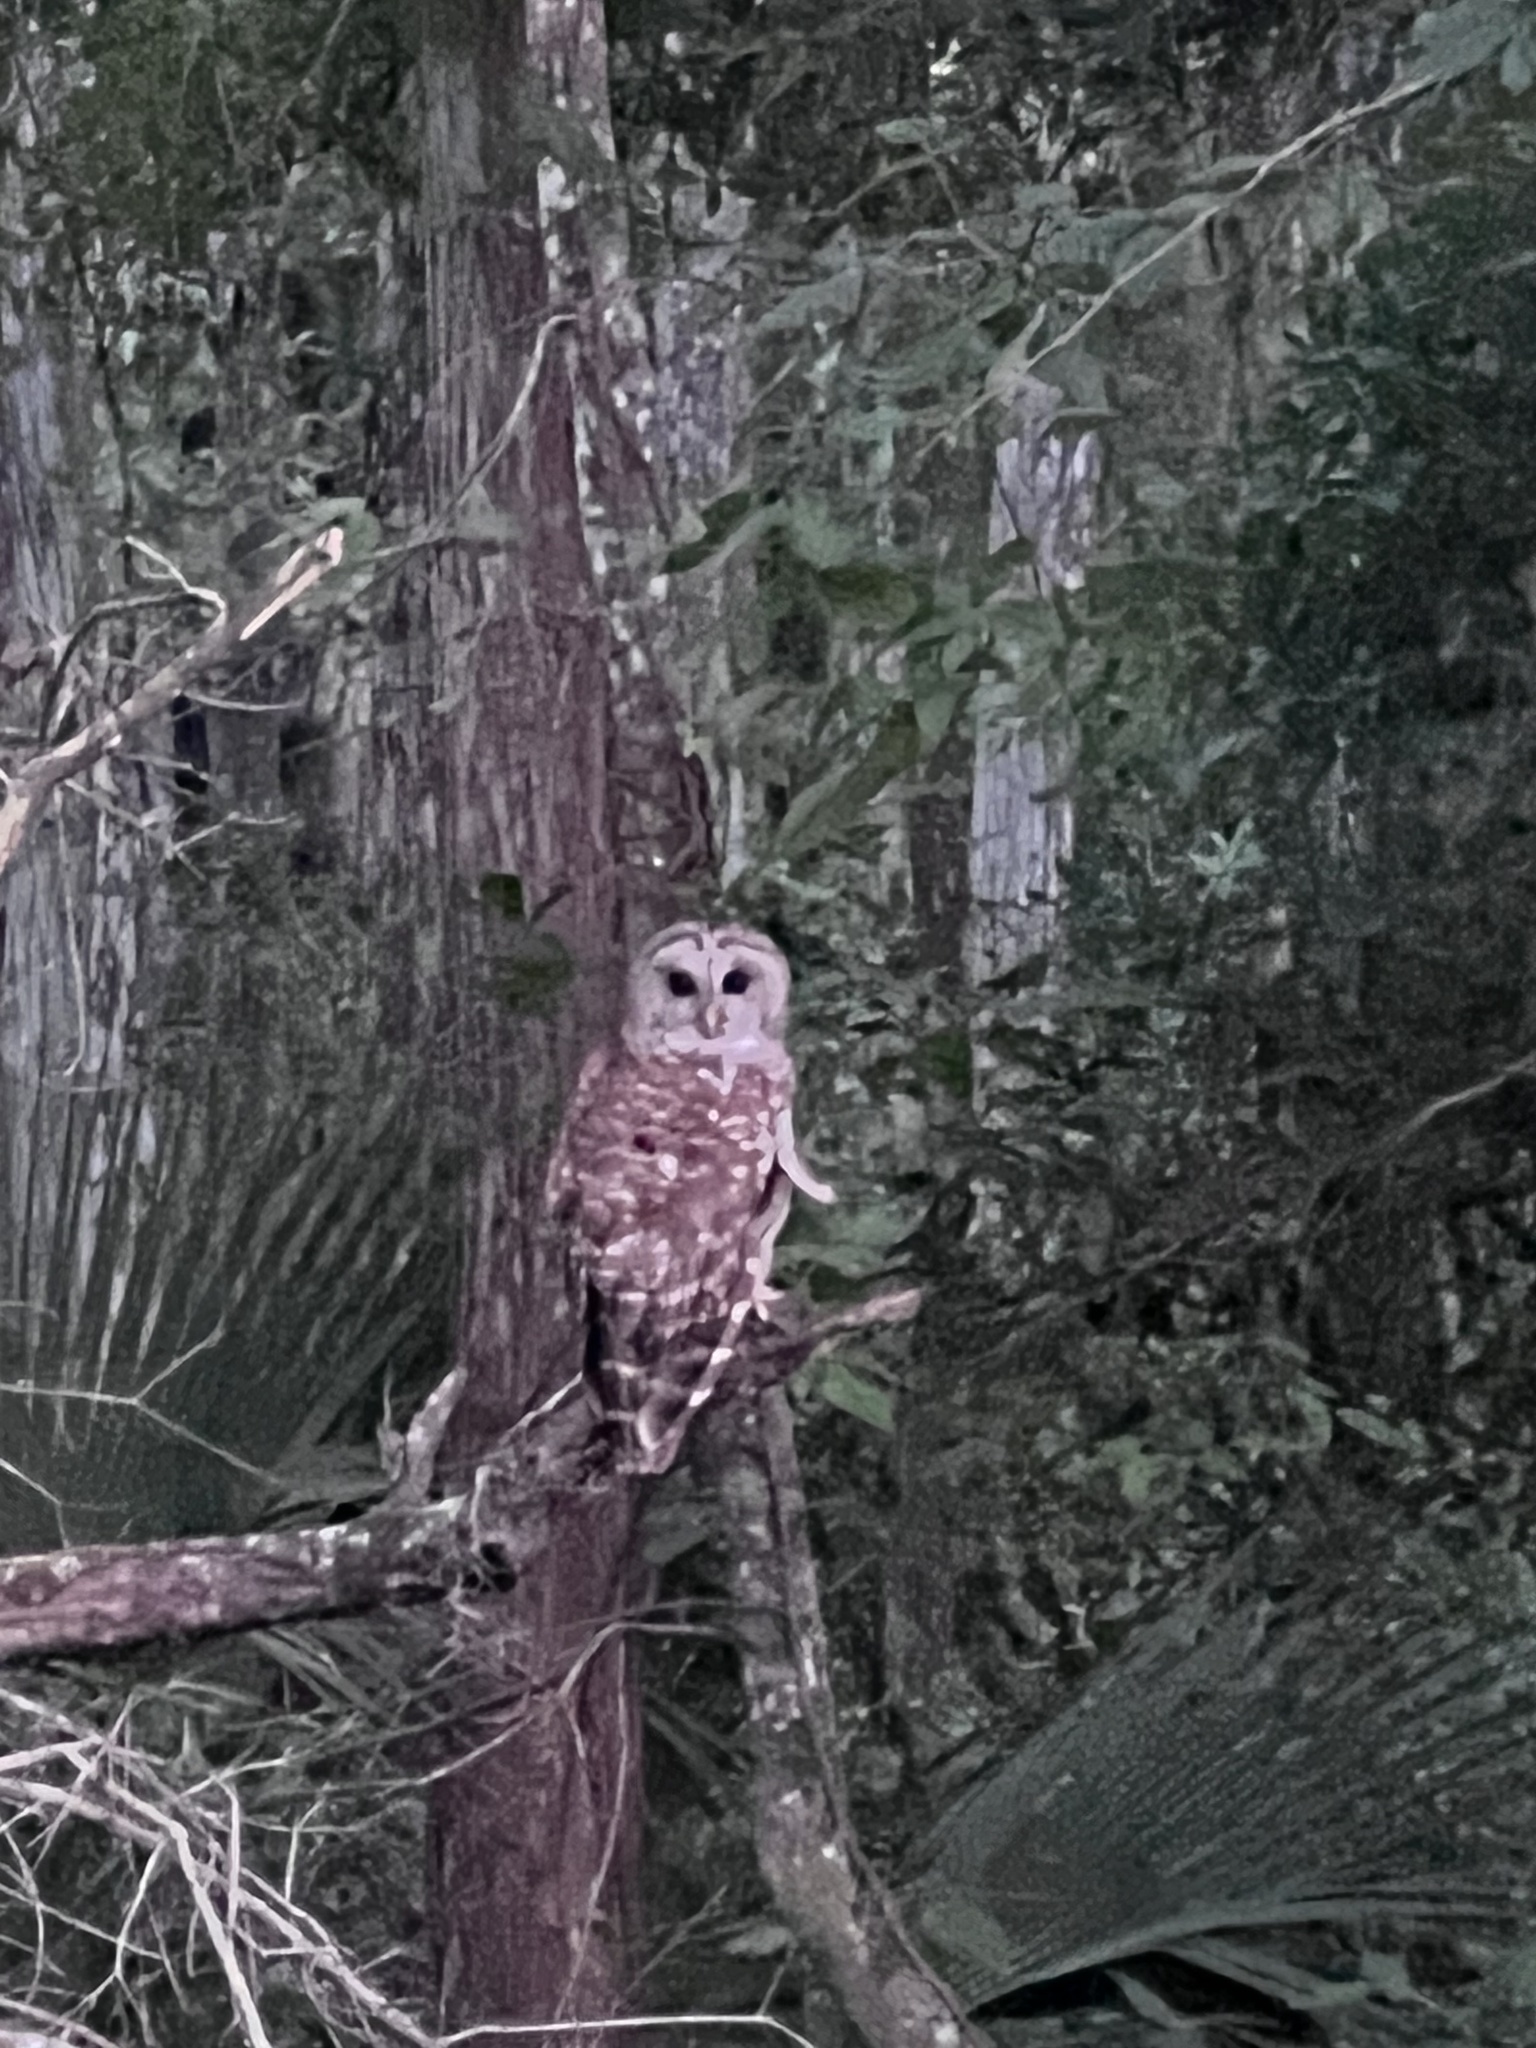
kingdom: Animalia
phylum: Chordata
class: Aves
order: Strigiformes
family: Strigidae
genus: Strix
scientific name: Strix varia
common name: Barred owl
